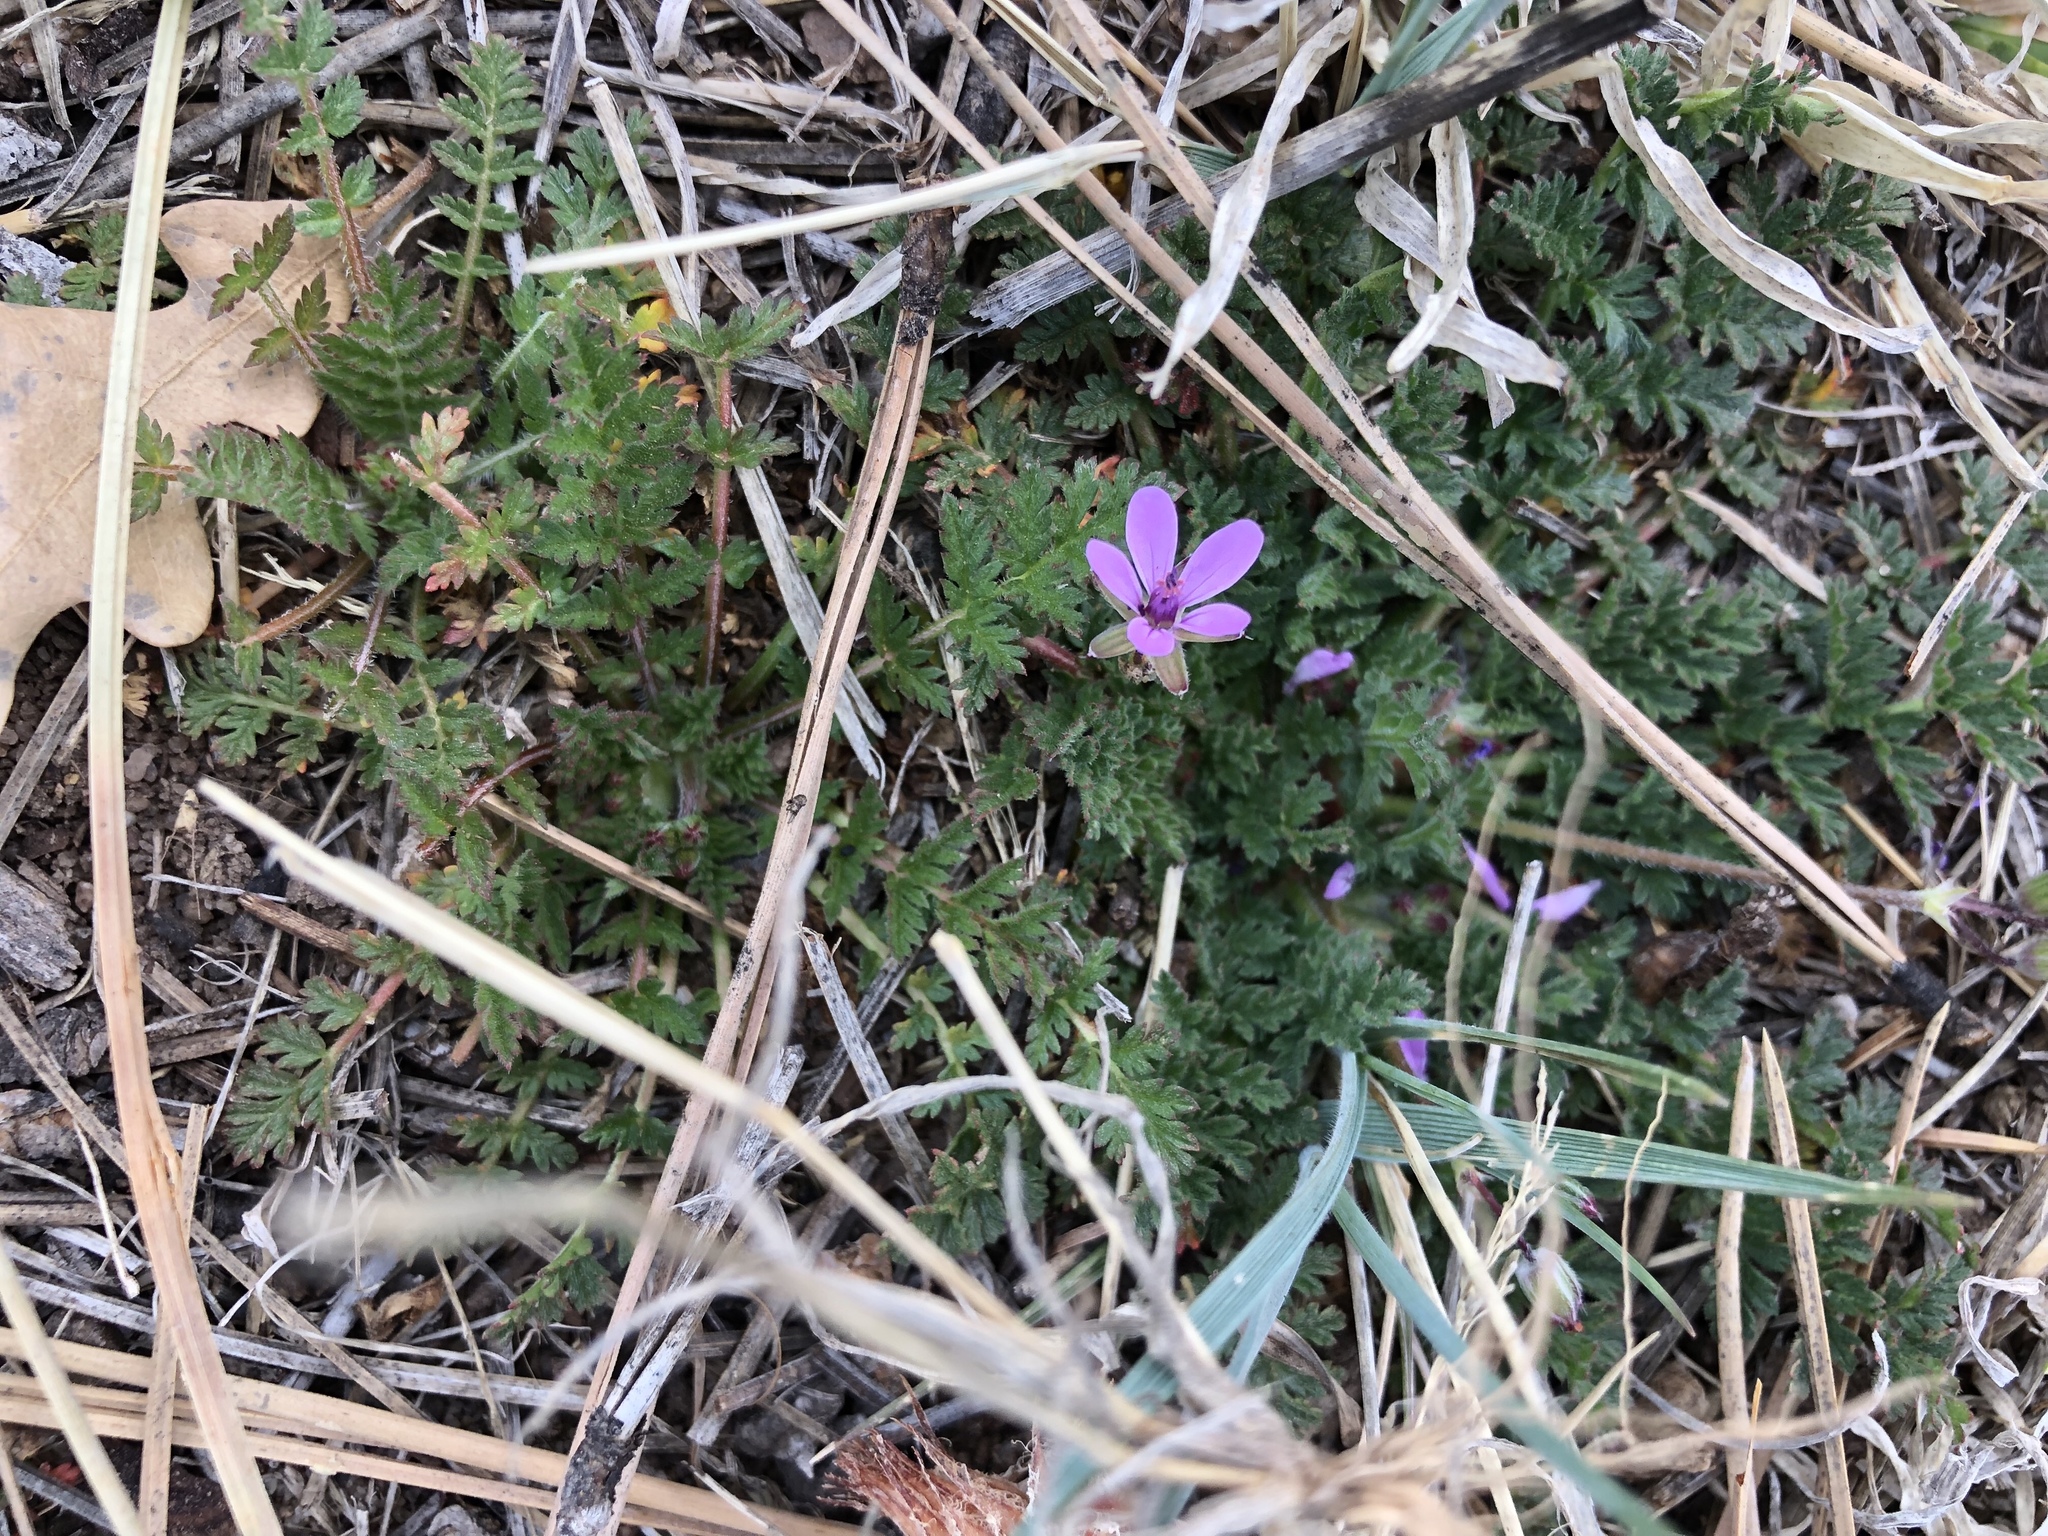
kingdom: Plantae
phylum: Tracheophyta
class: Magnoliopsida
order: Geraniales
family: Geraniaceae
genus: Erodium
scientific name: Erodium cicutarium
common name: Common stork's-bill
